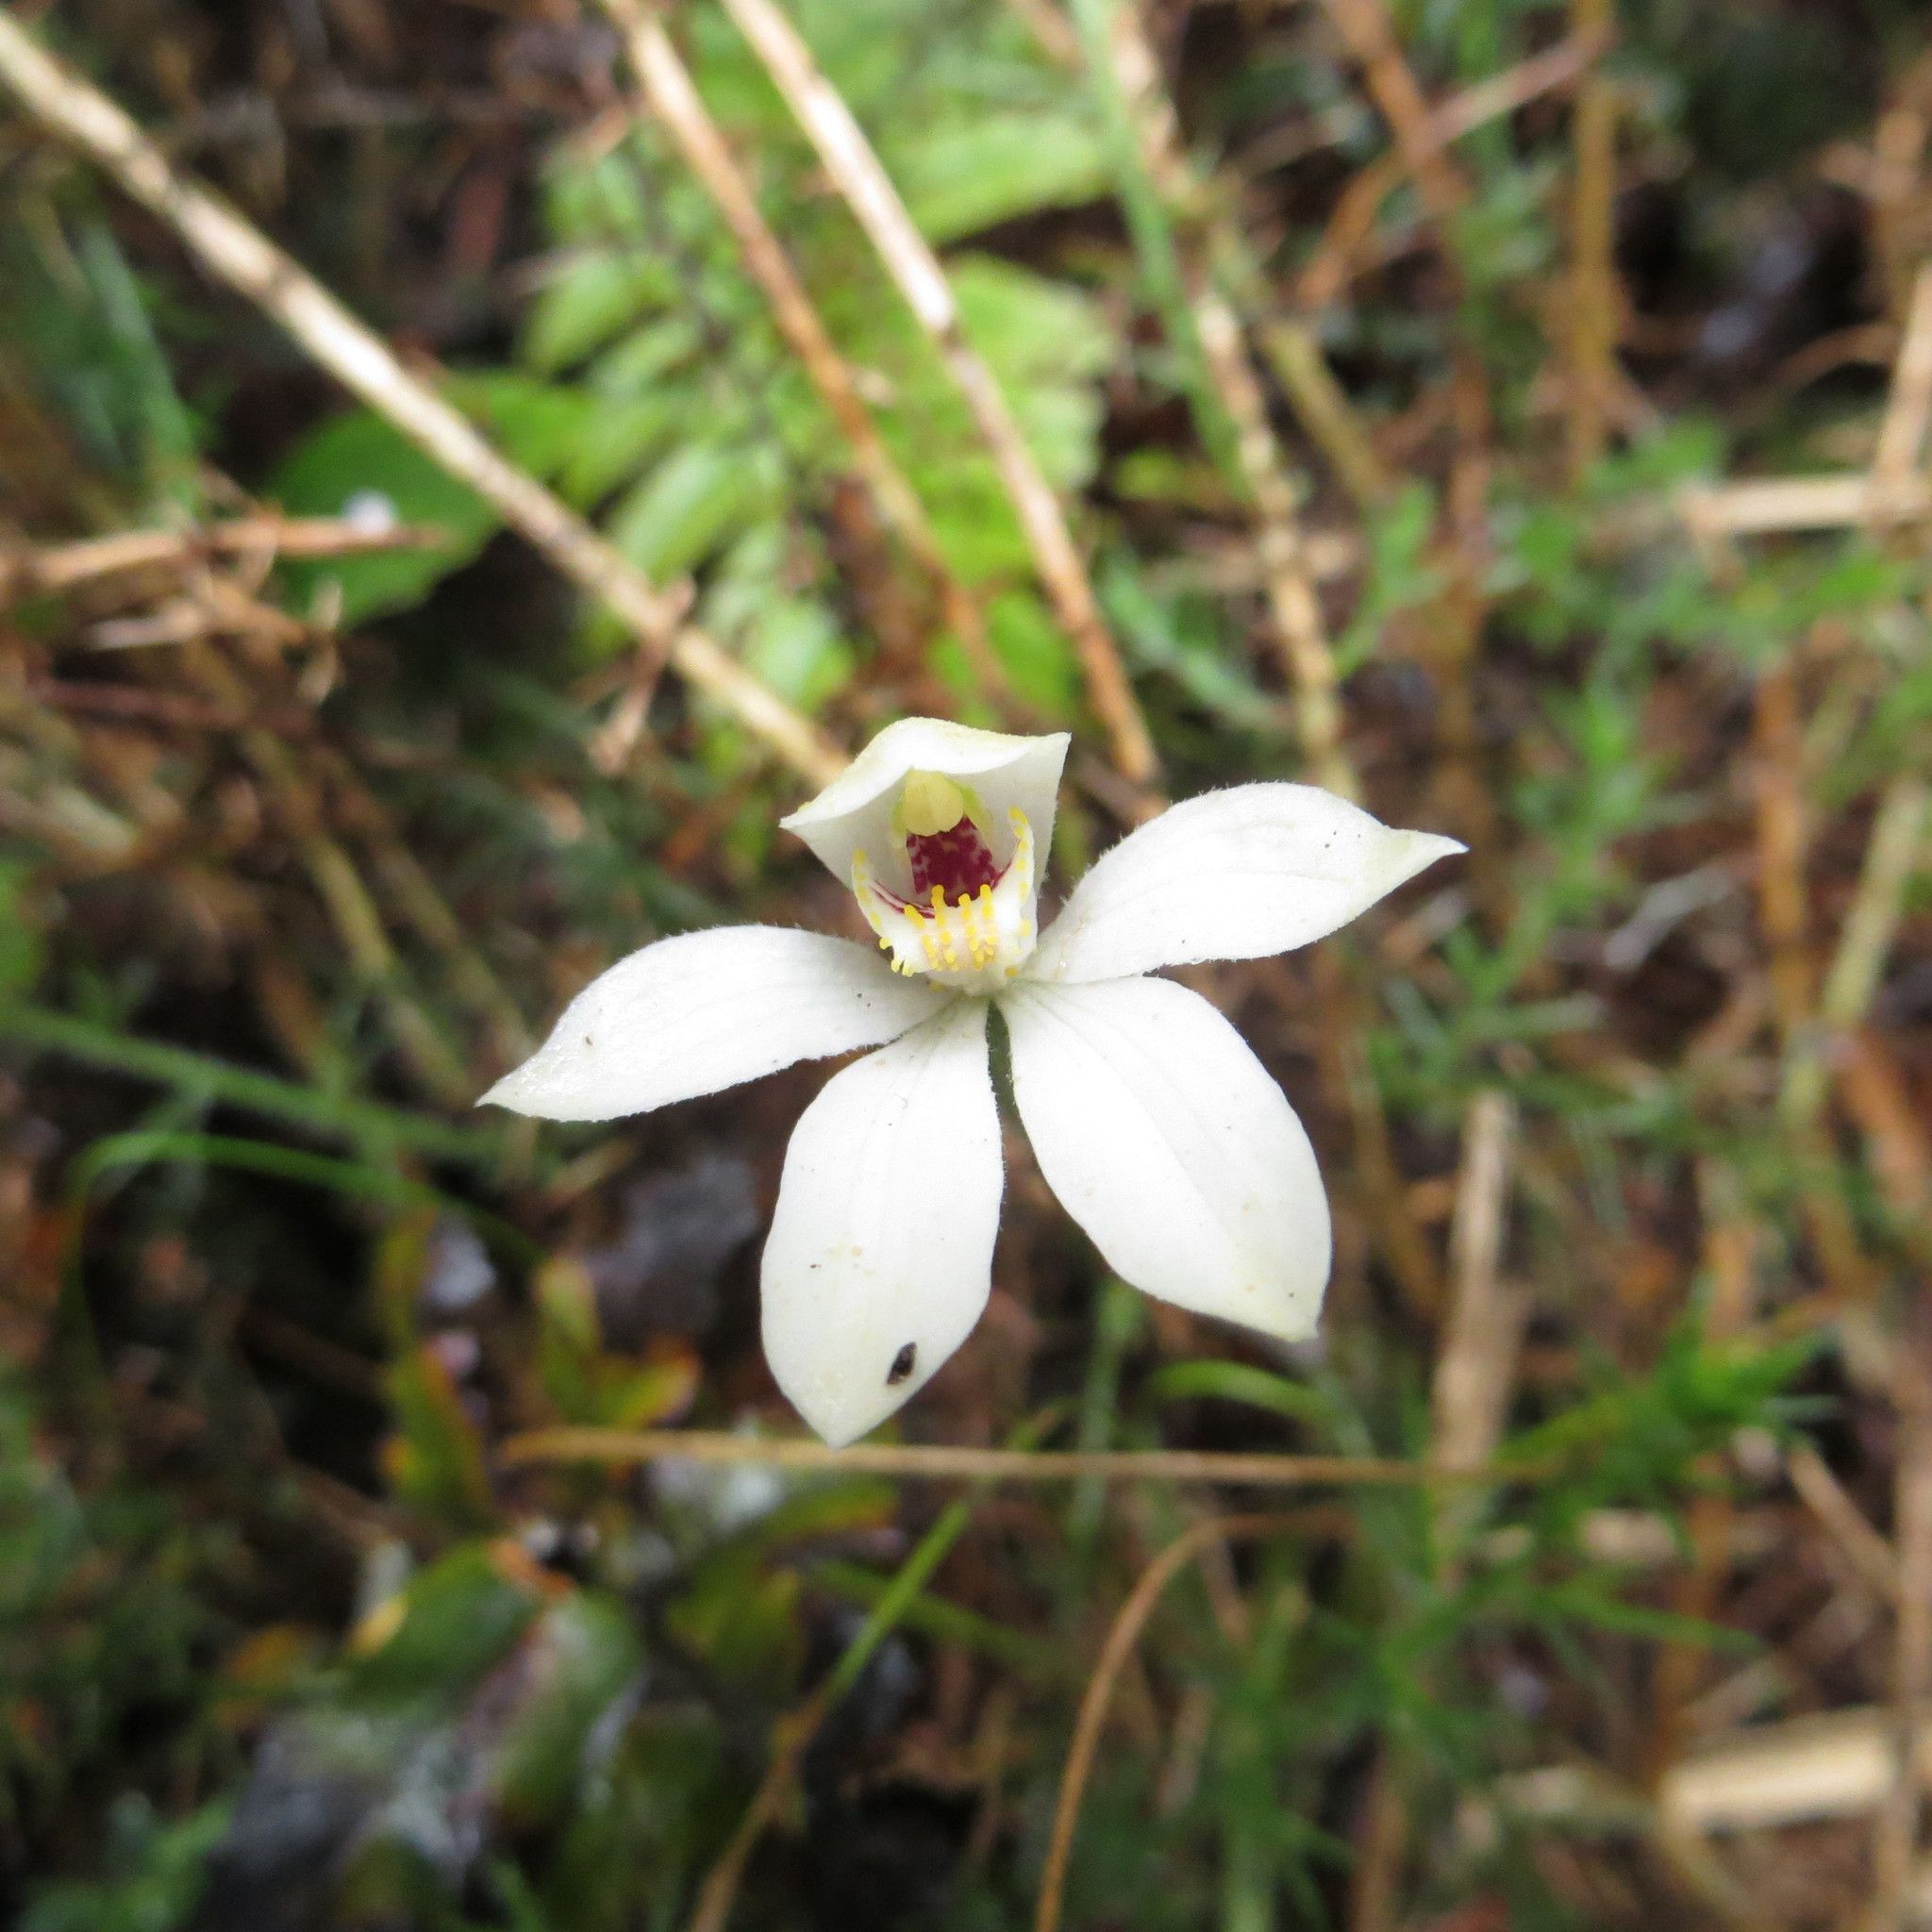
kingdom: Plantae
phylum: Tracheophyta
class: Liliopsida
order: Asparagales
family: Orchidaceae
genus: Caladenia
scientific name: Caladenia lyallii
